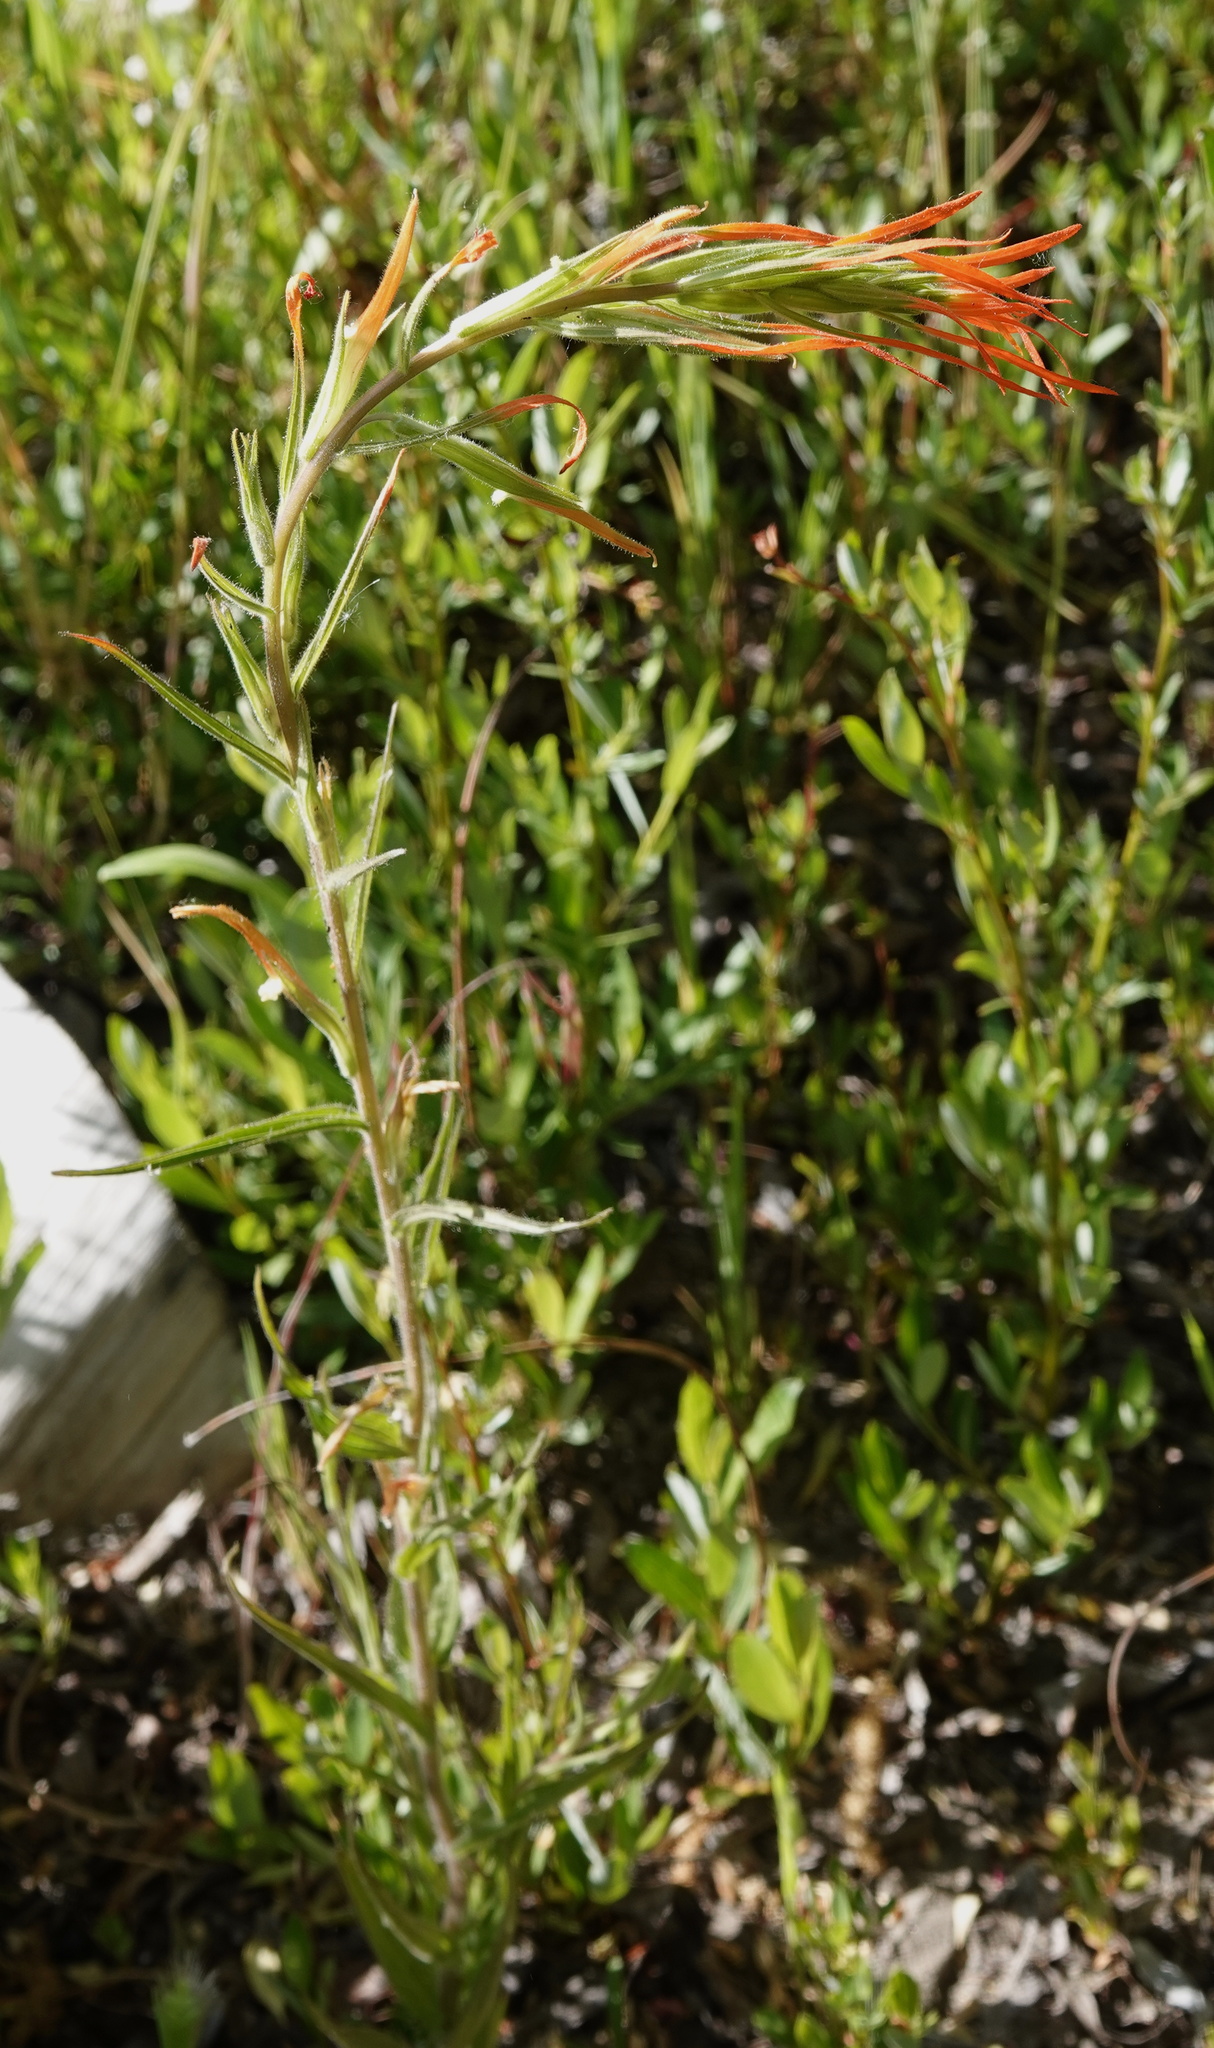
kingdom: Plantae
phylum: Tracheophyta
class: Magnoliopsida
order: Lamiales
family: Orobanchaceae
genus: Castilleja
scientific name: Castilleja minor
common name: Seep paintbrush
